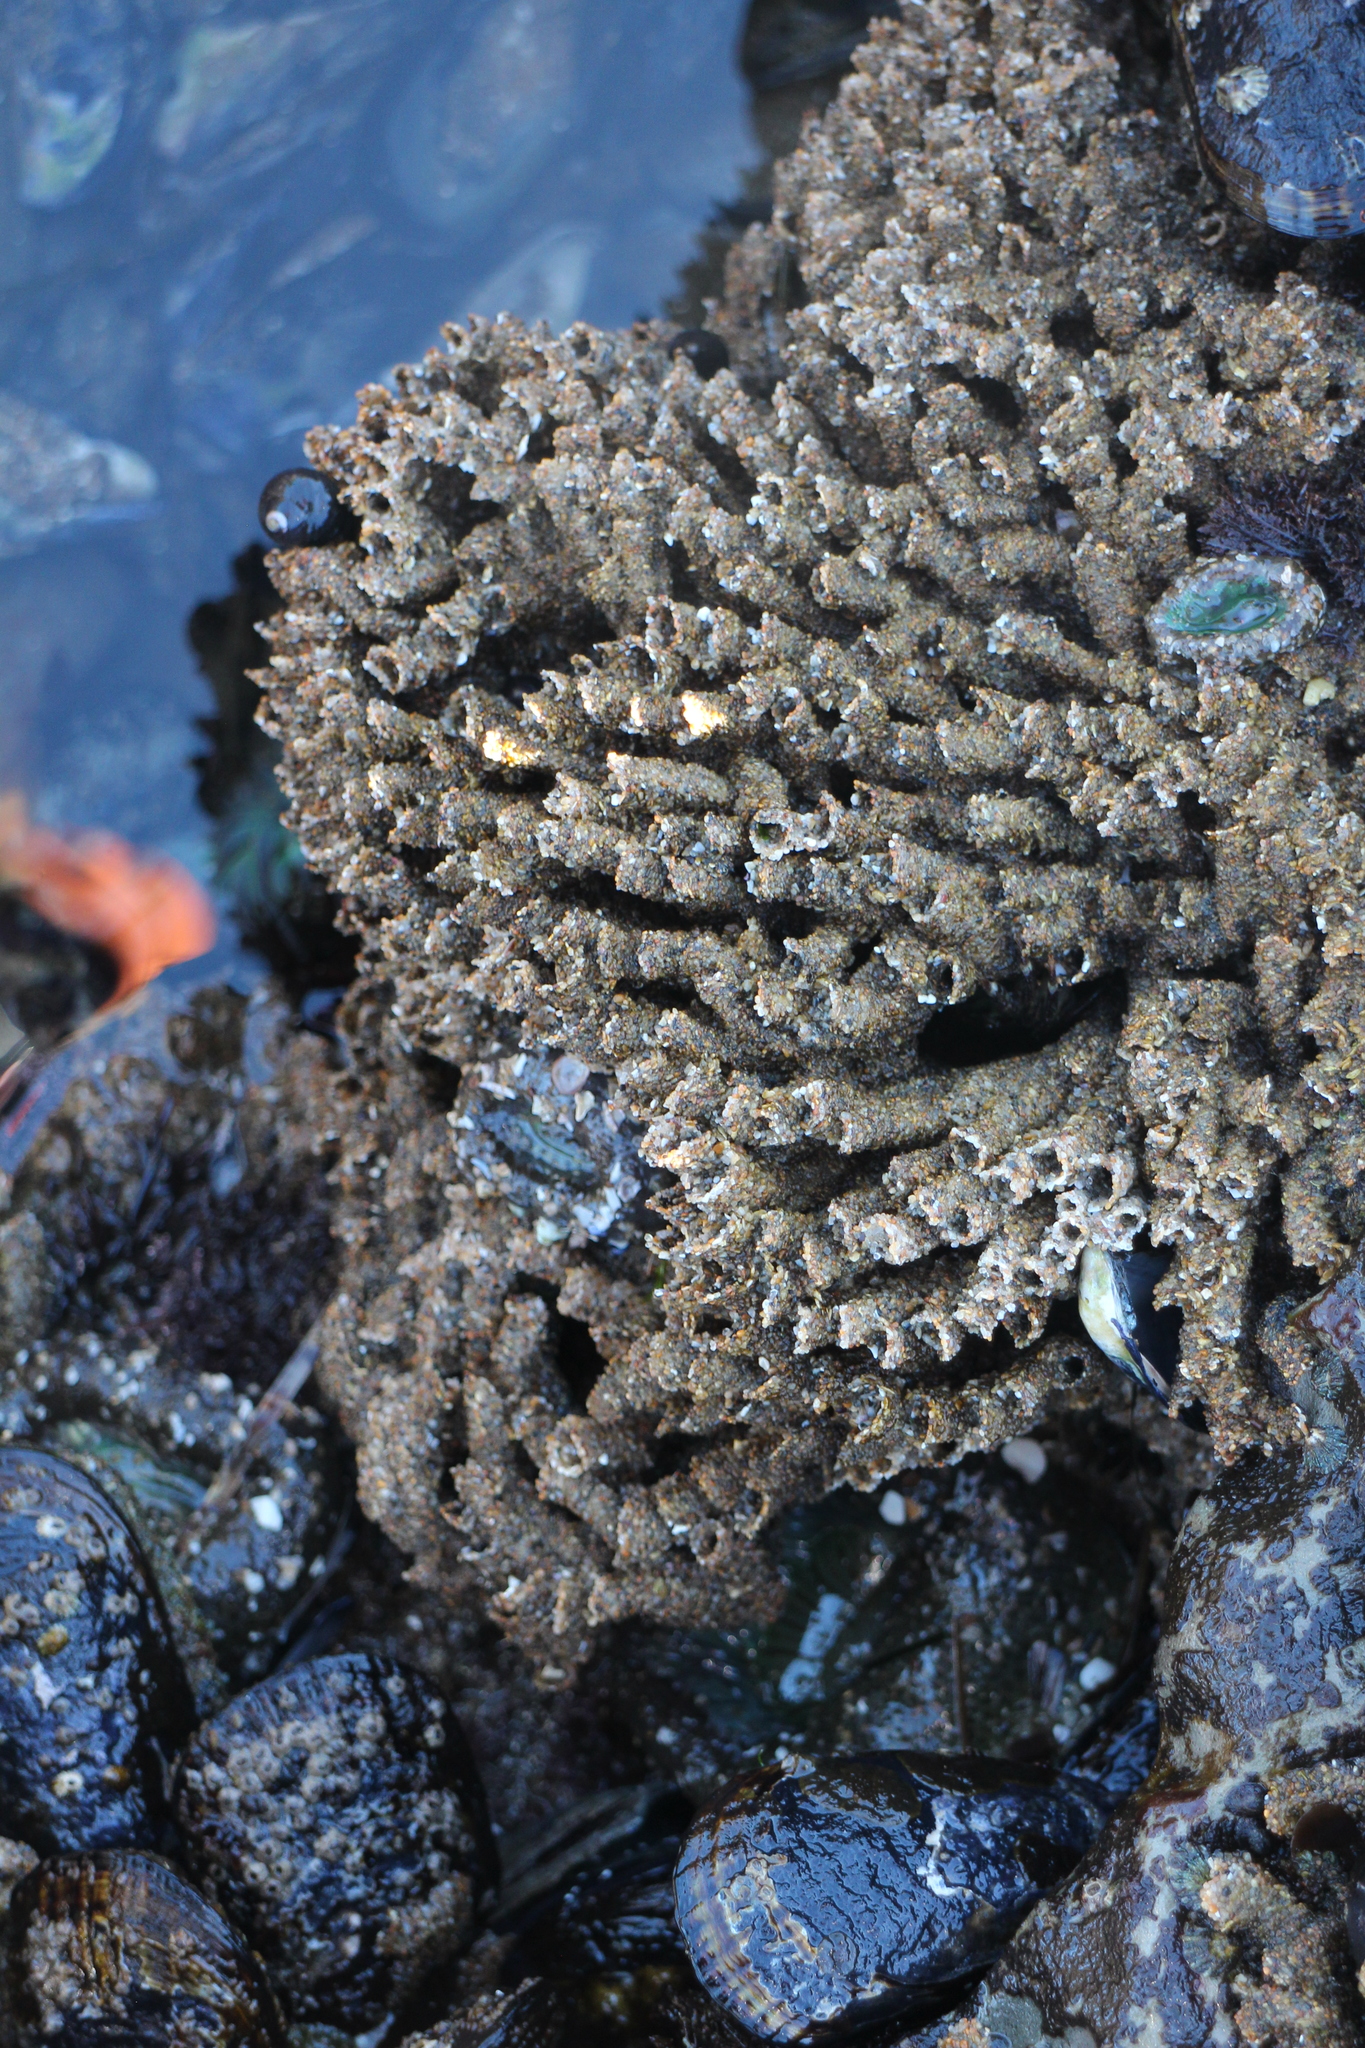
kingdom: Animalia
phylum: Annelida
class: Polychaeta
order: Sabellida
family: Sabellariidae
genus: Phragmatopoma
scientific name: Phragmatopoma californica
